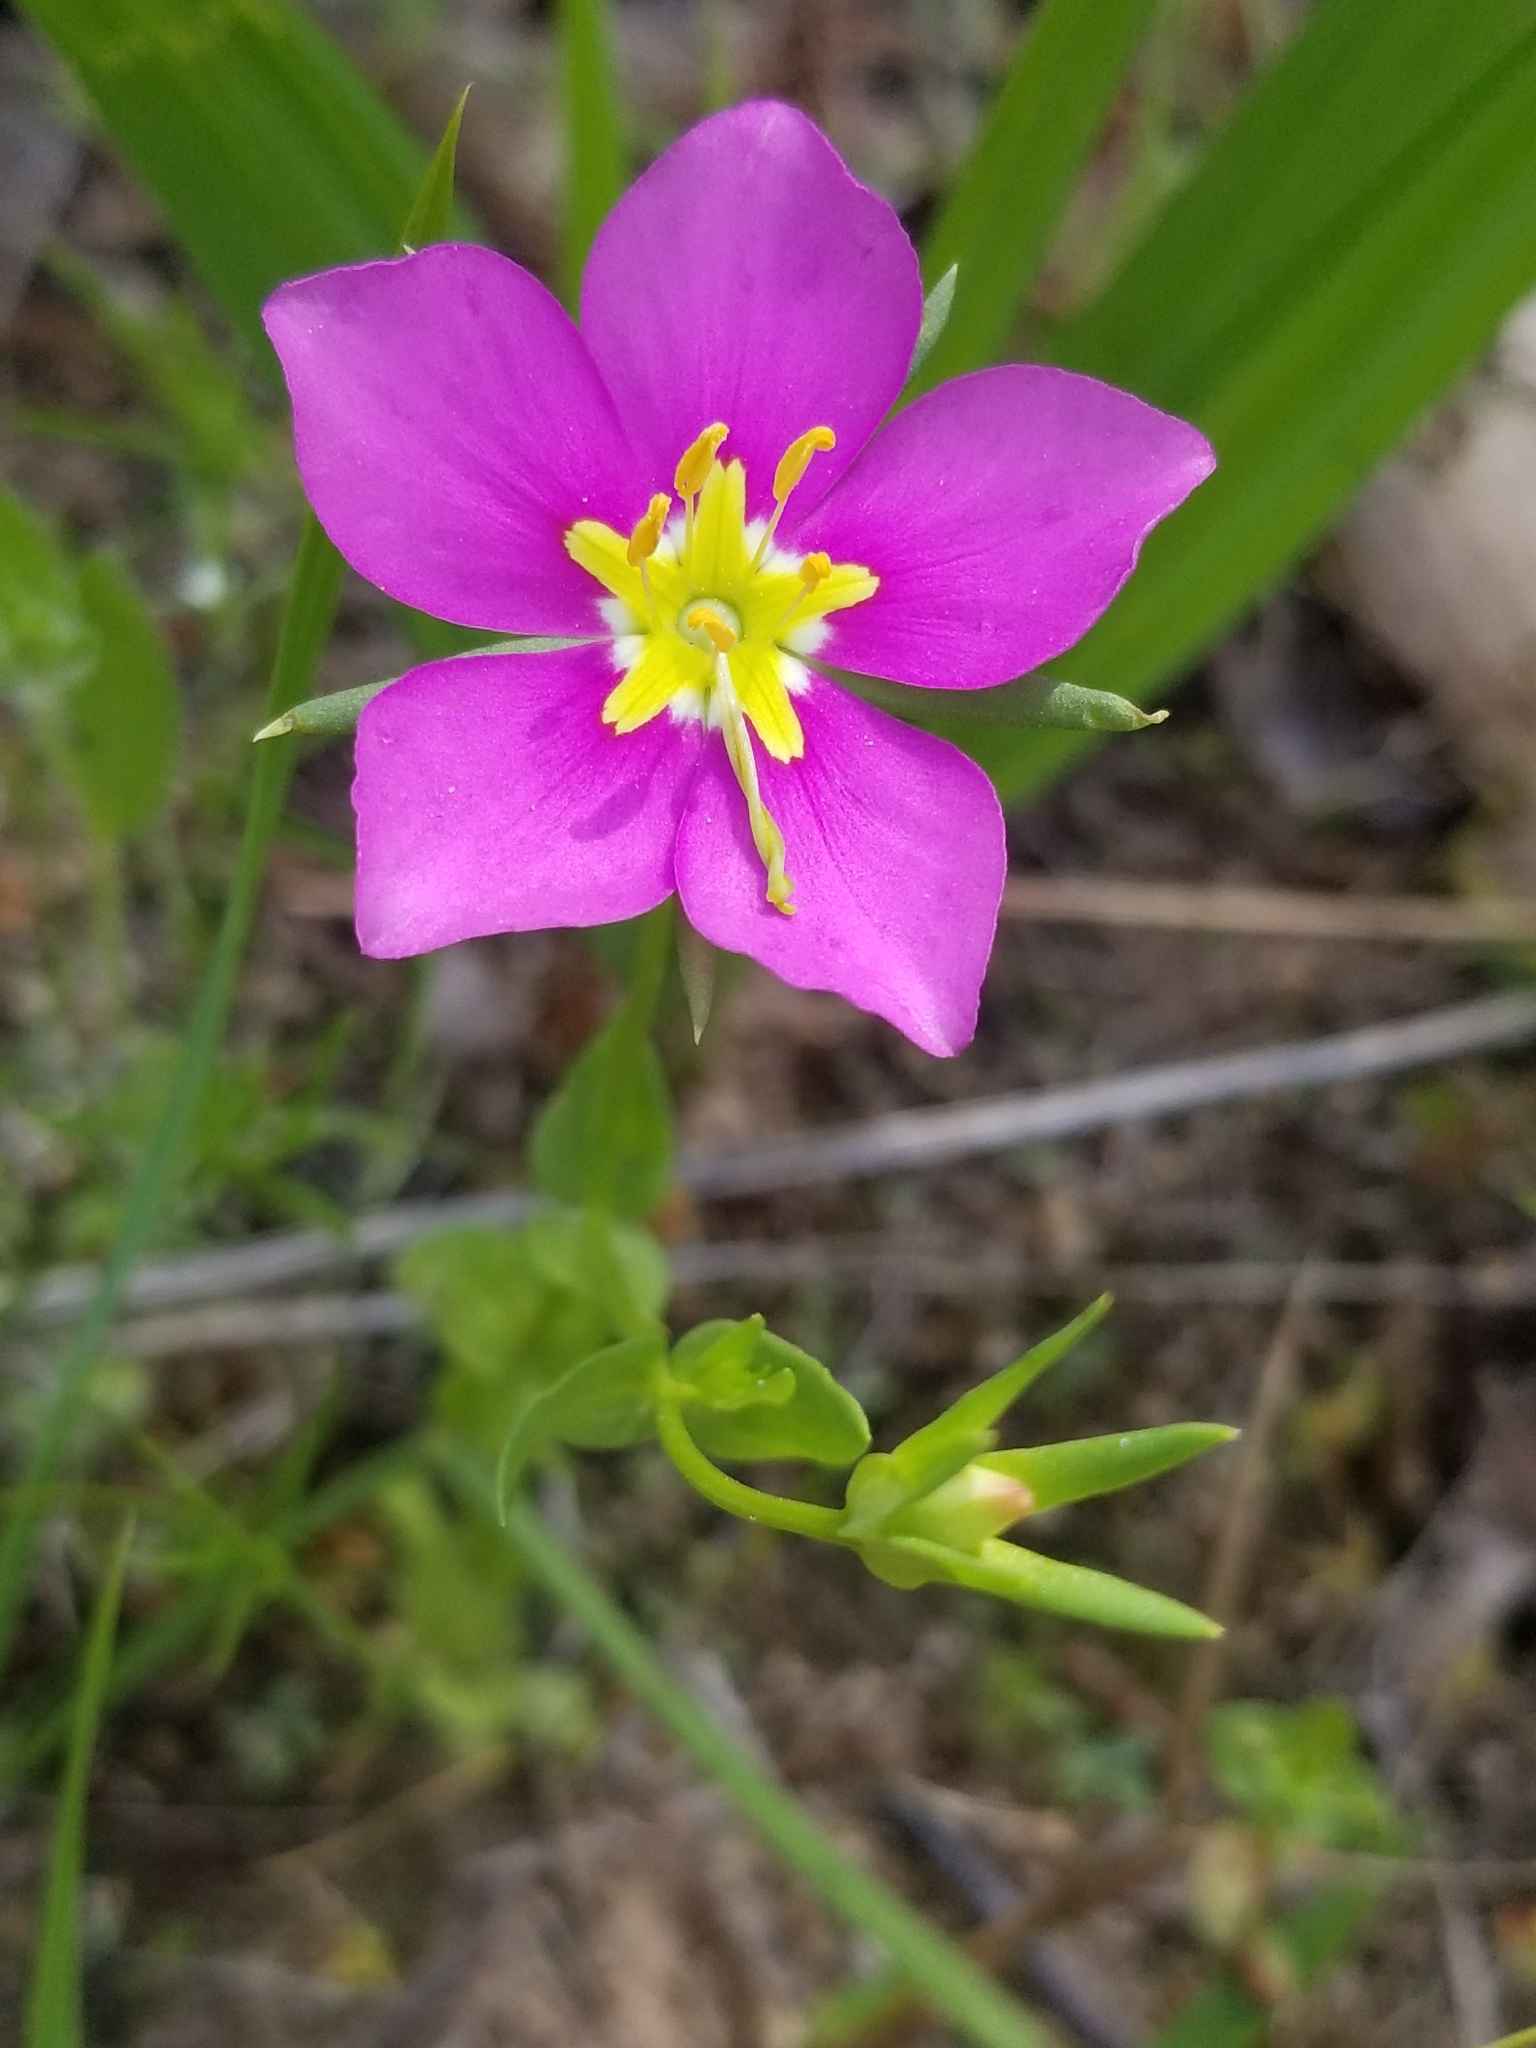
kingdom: Plantae
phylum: Tracheophyta
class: Magnoliopsida
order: Gentianales
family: Gentianaceae
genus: Sabatia
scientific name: Sabatia campestris
